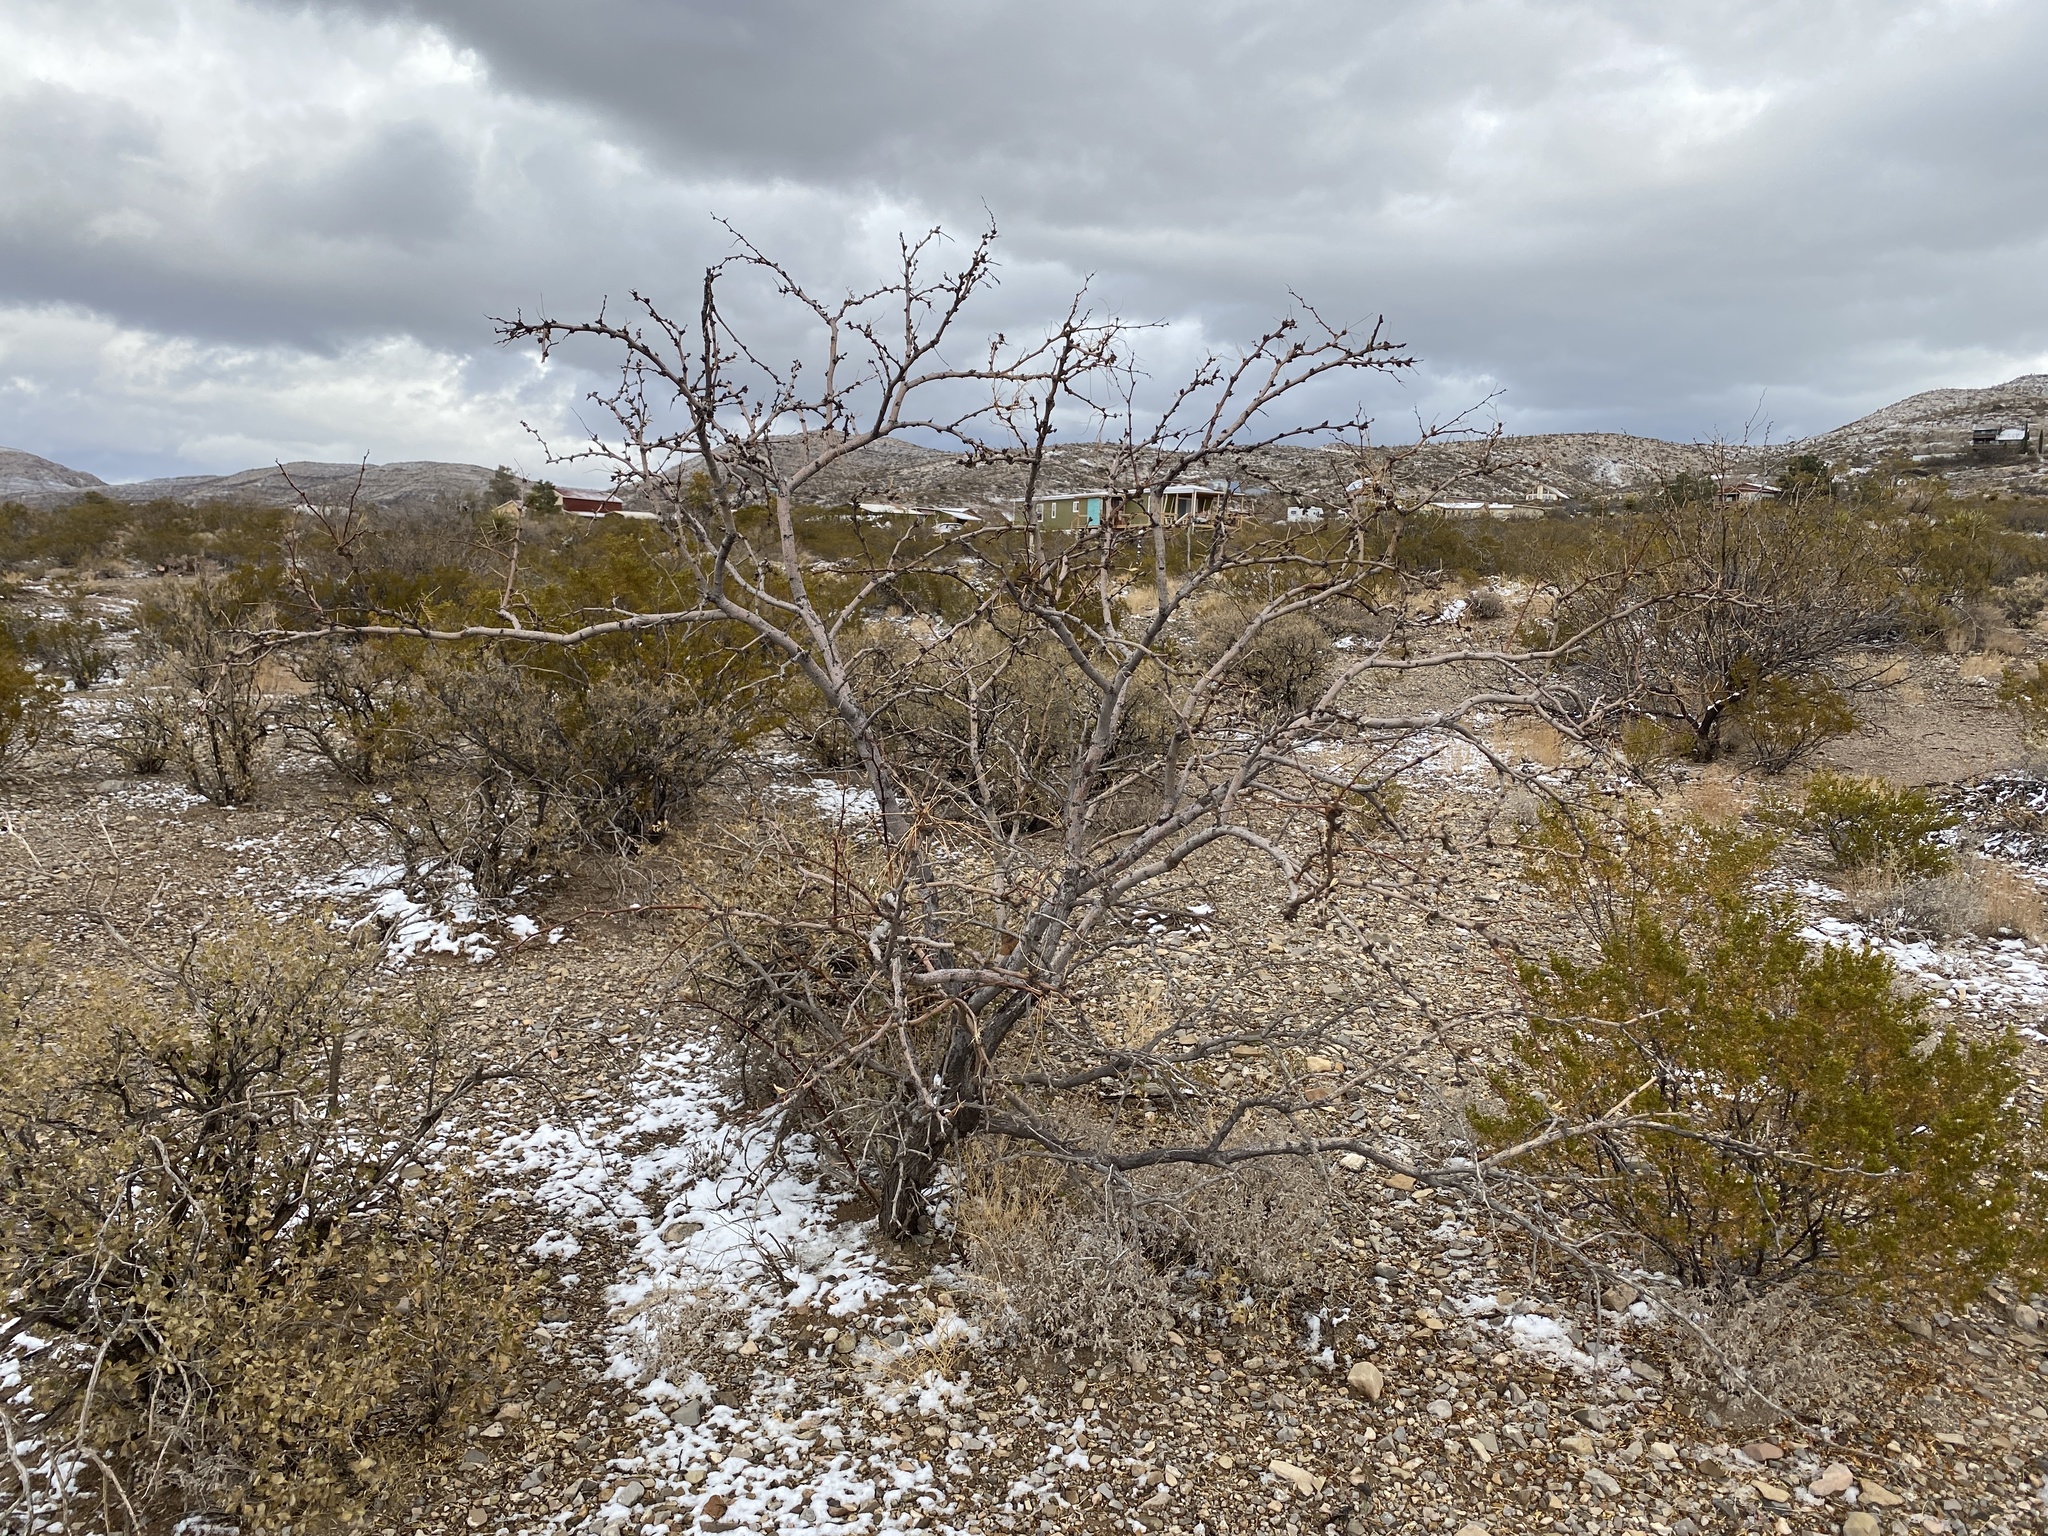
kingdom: Plantae
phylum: Tracheophyta
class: Magnoliopsida
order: Fabales
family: Fabaceae
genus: Prosopis
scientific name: Prosopis glandulosa
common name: Honey mesquite
